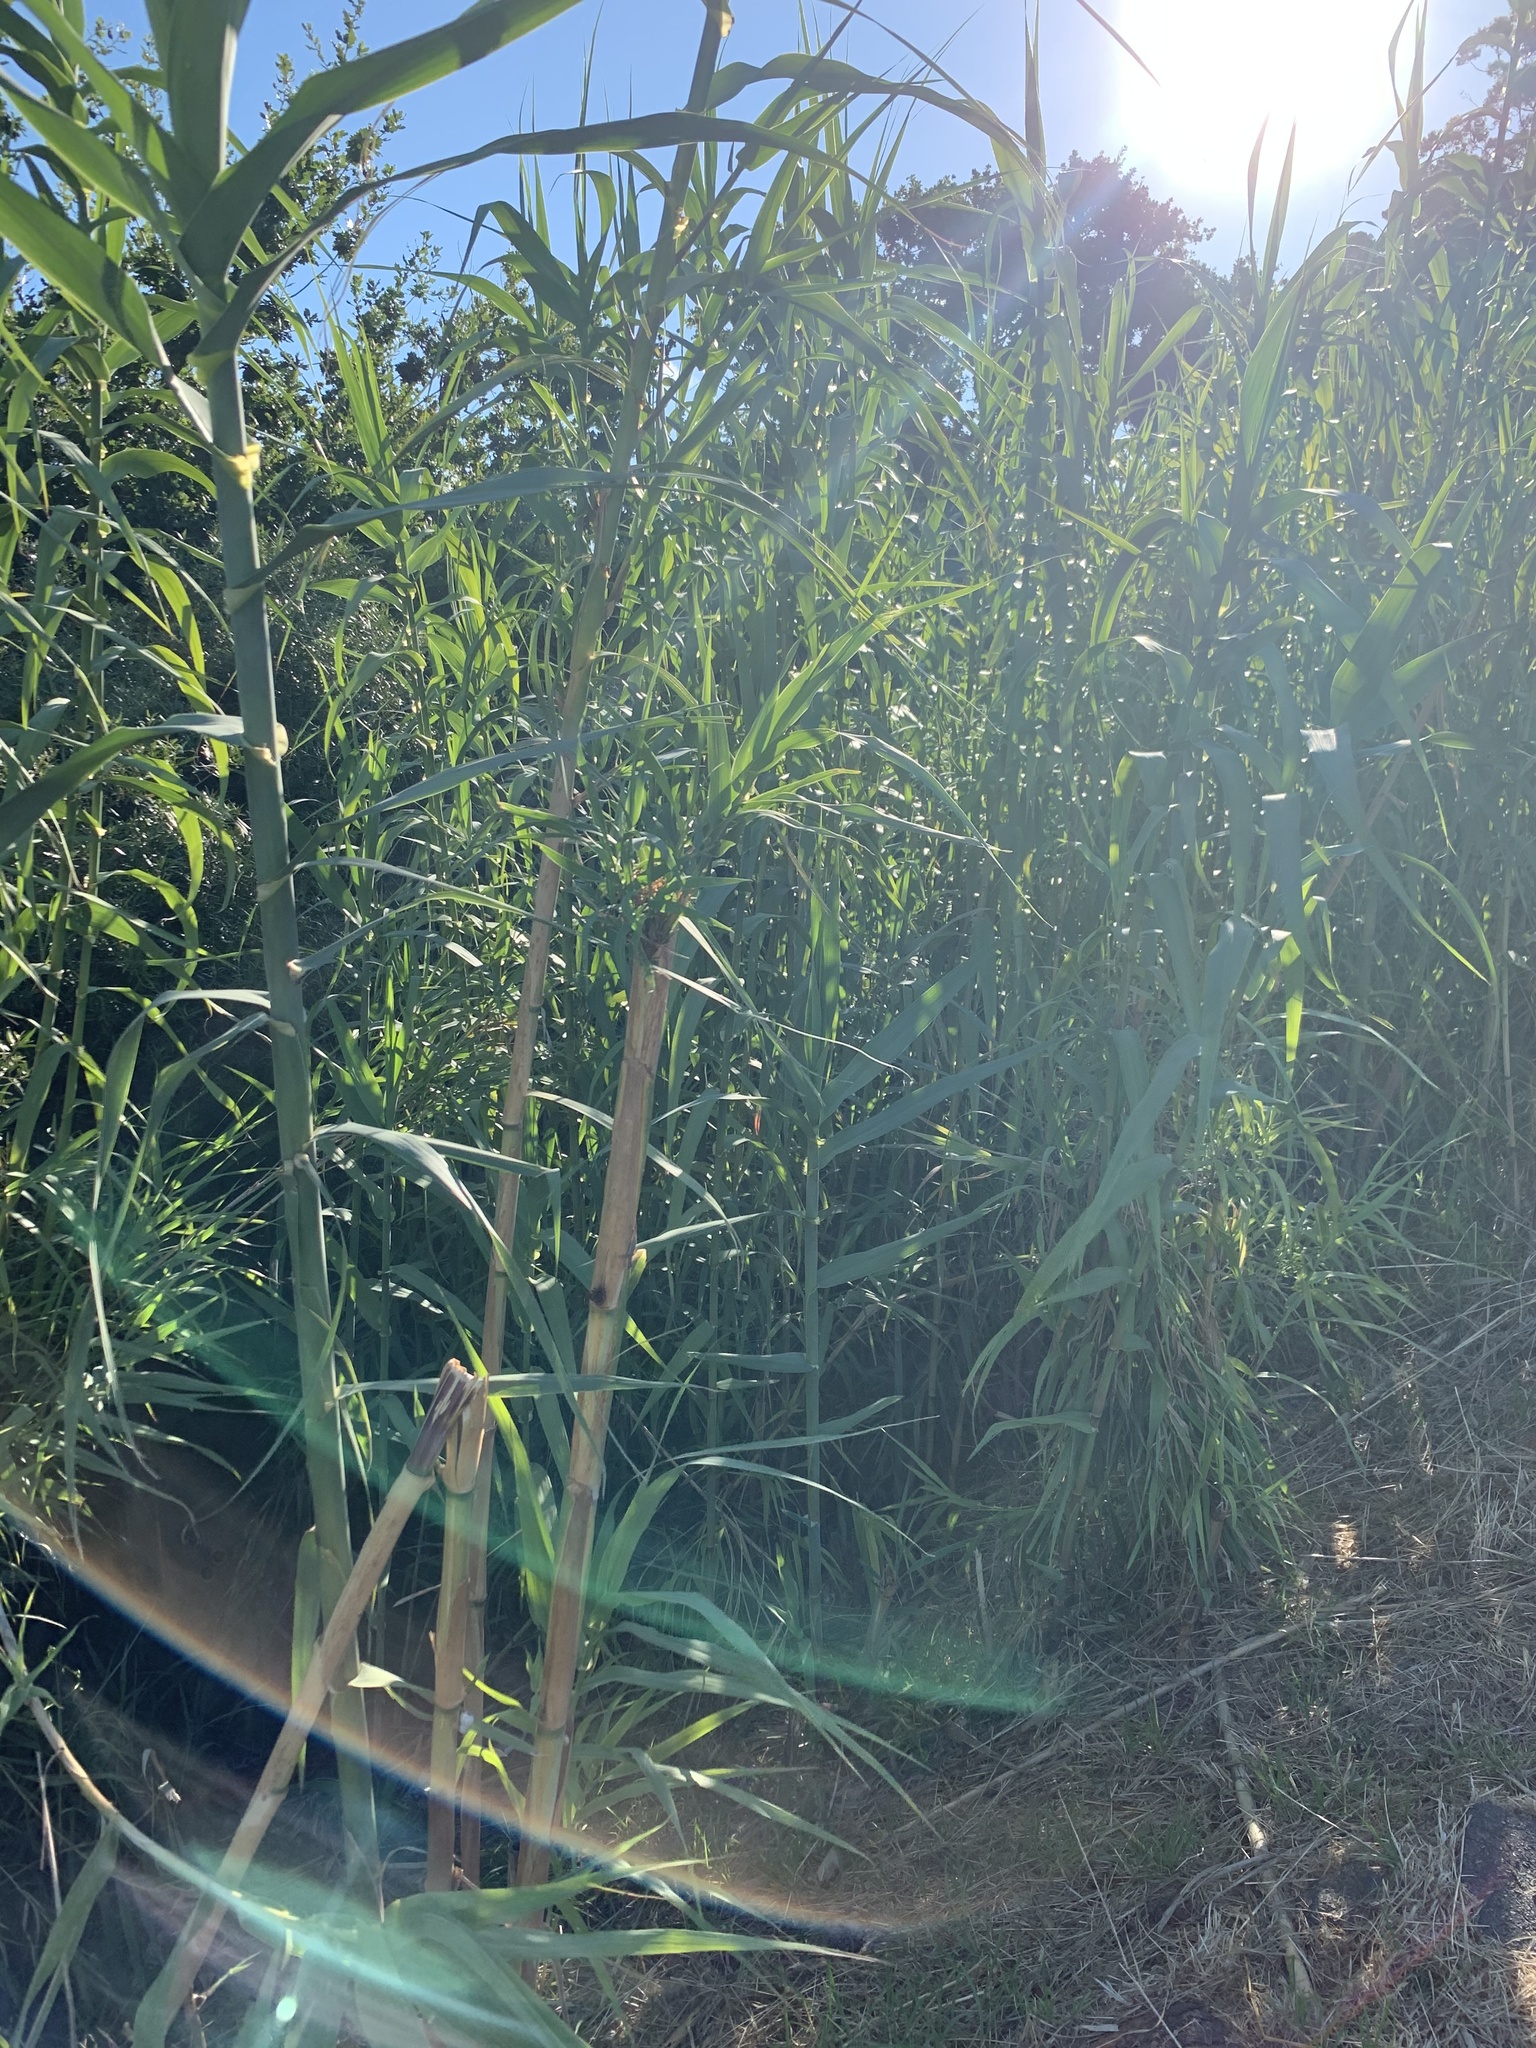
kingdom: Plantae
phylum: Tracheophyta
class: Liliopsida
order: Poales
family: Poaceae
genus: Arundo
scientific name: Arundo donax
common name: Giant reed
